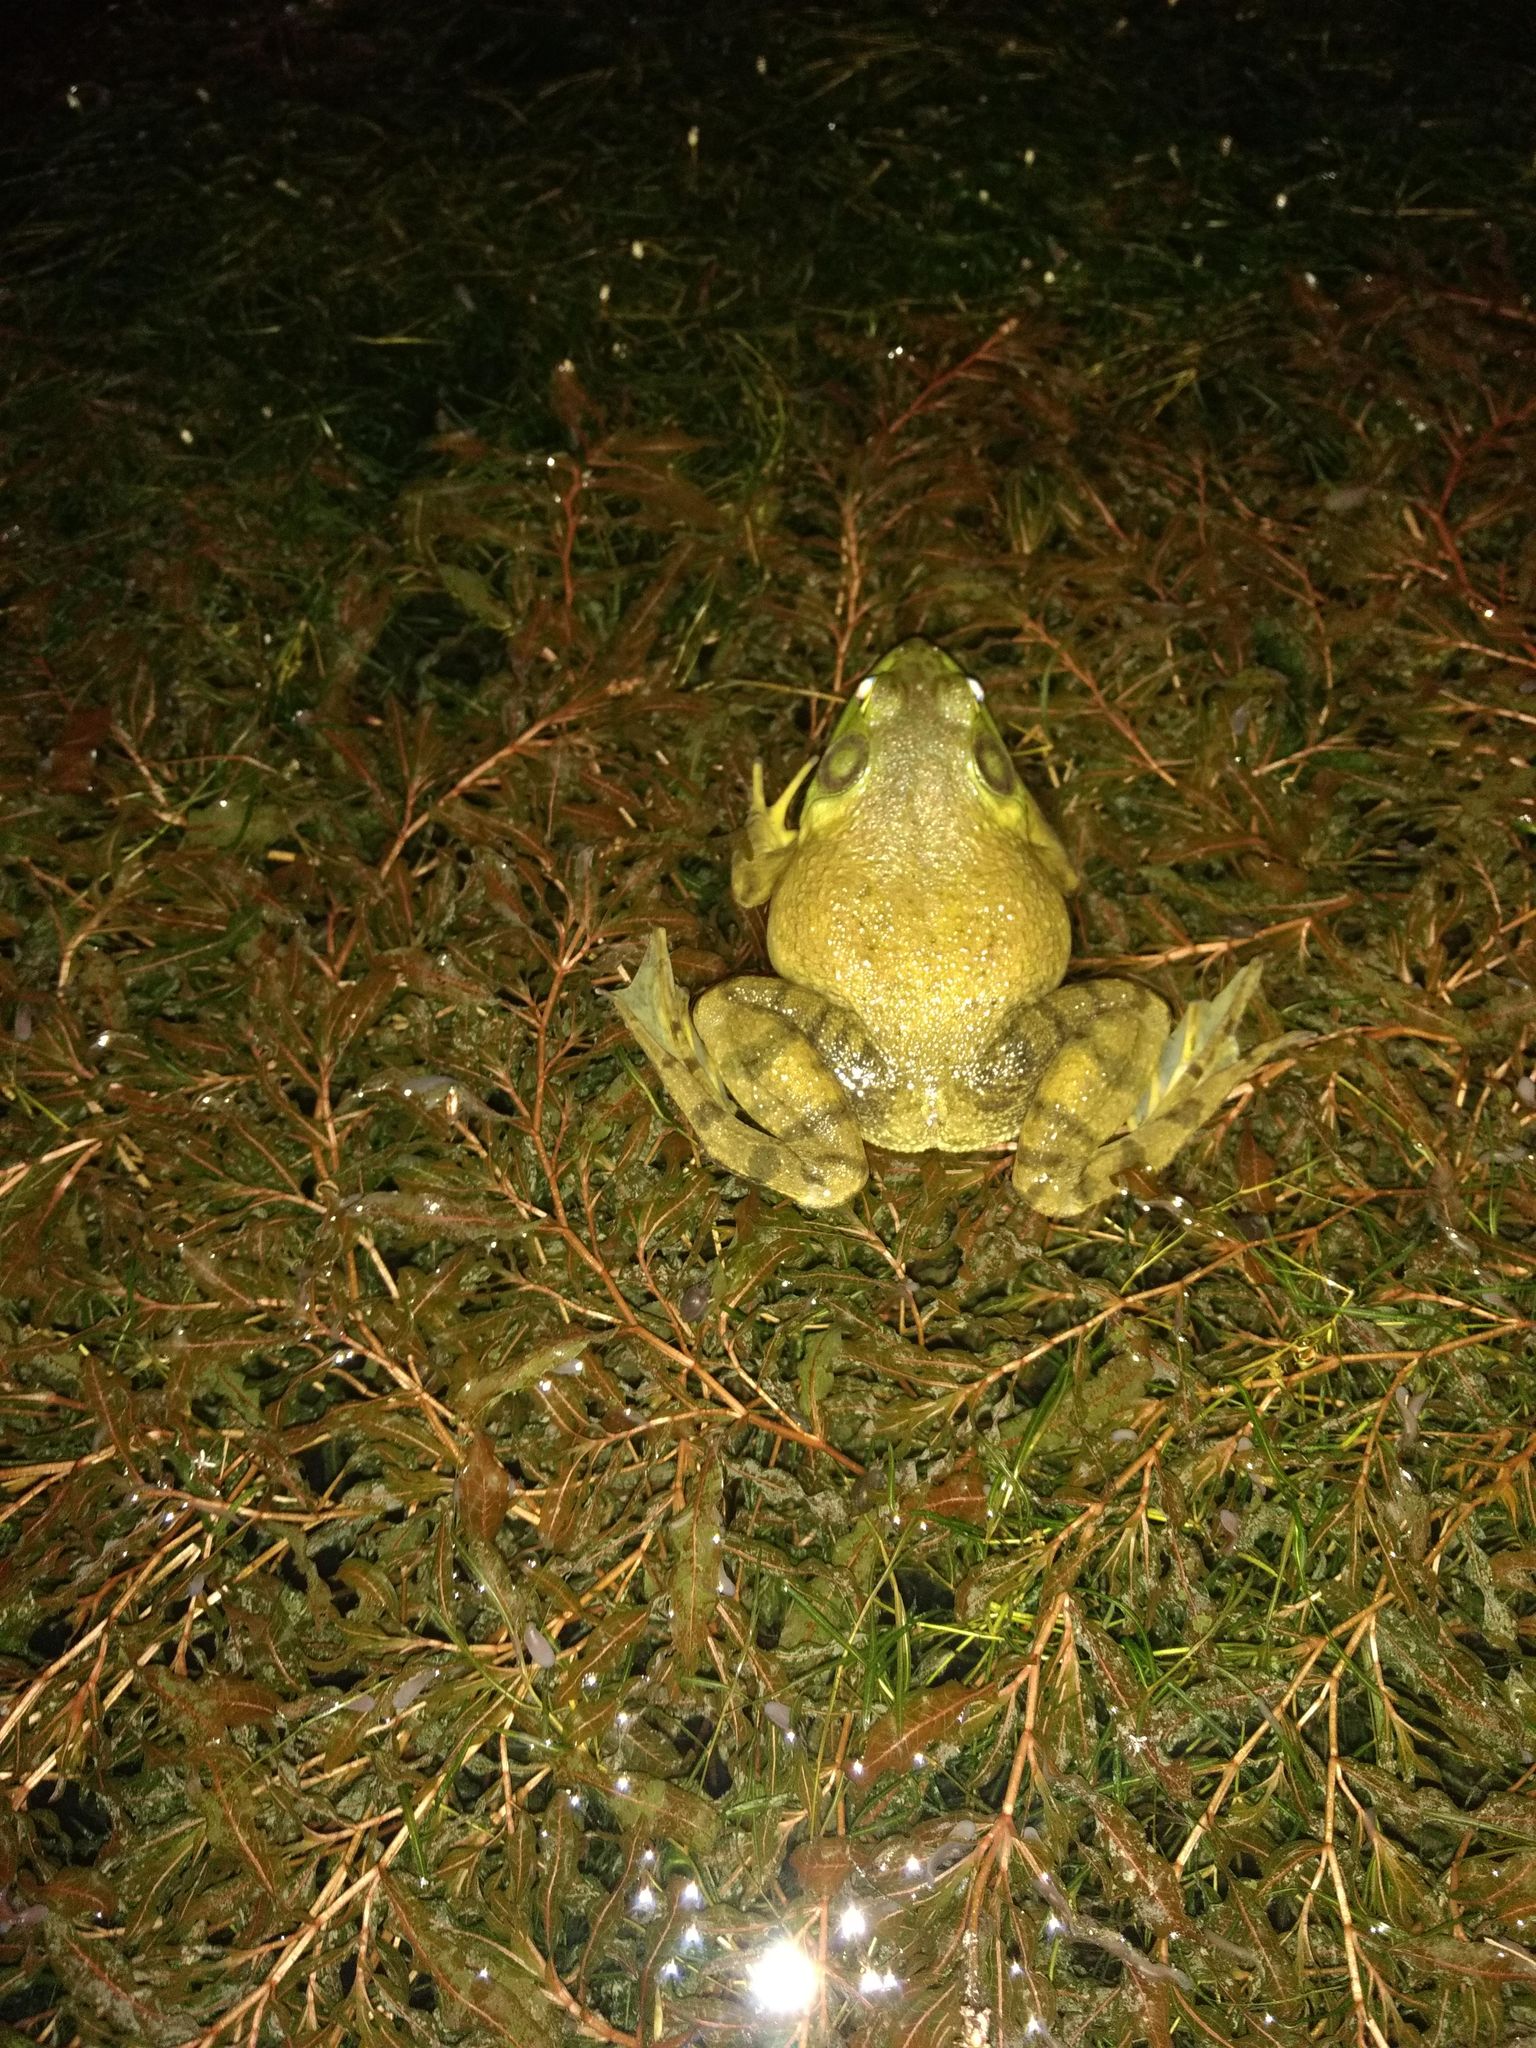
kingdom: Animalia
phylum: Chordata
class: Amphibia
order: Anura
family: Ranidae
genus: Lithobates
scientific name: Lithobates catesbeianus
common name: American bullfrog
